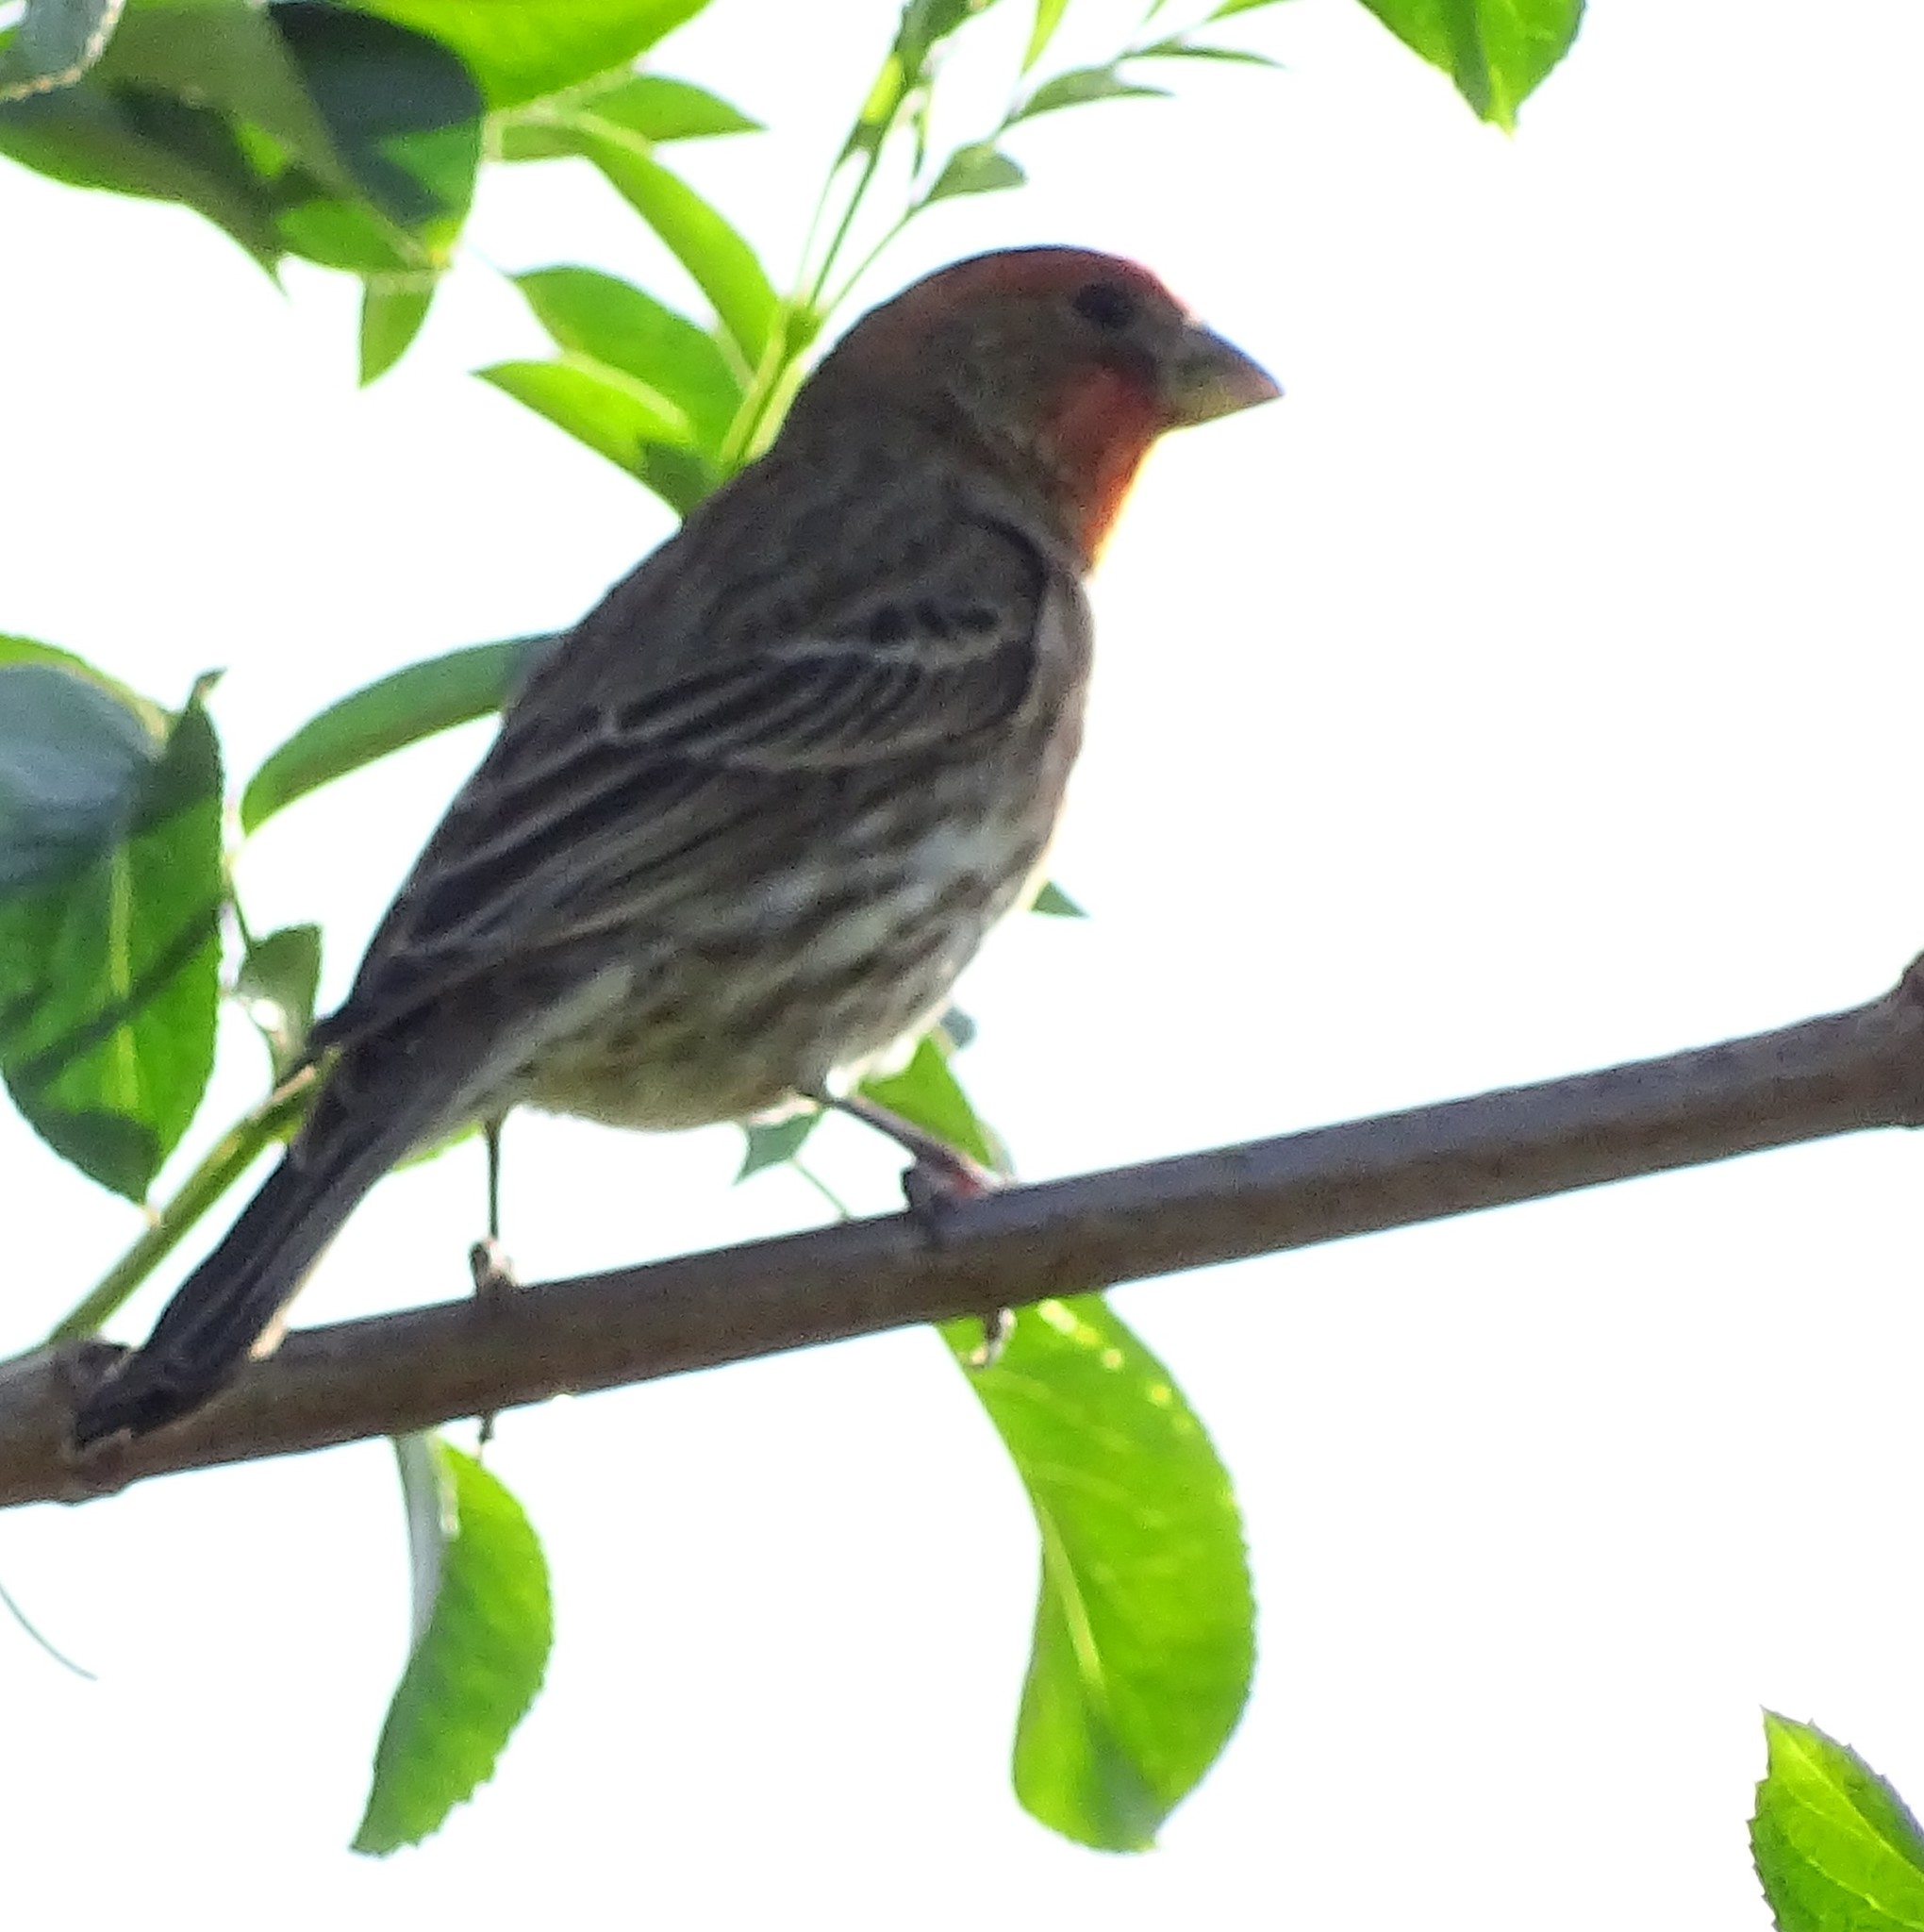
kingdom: Animalia
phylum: Chordata
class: Aves
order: Passeriformes
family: Fringillidae
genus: Haemorhous
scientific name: Haemorhous mexicanus
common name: House finch
